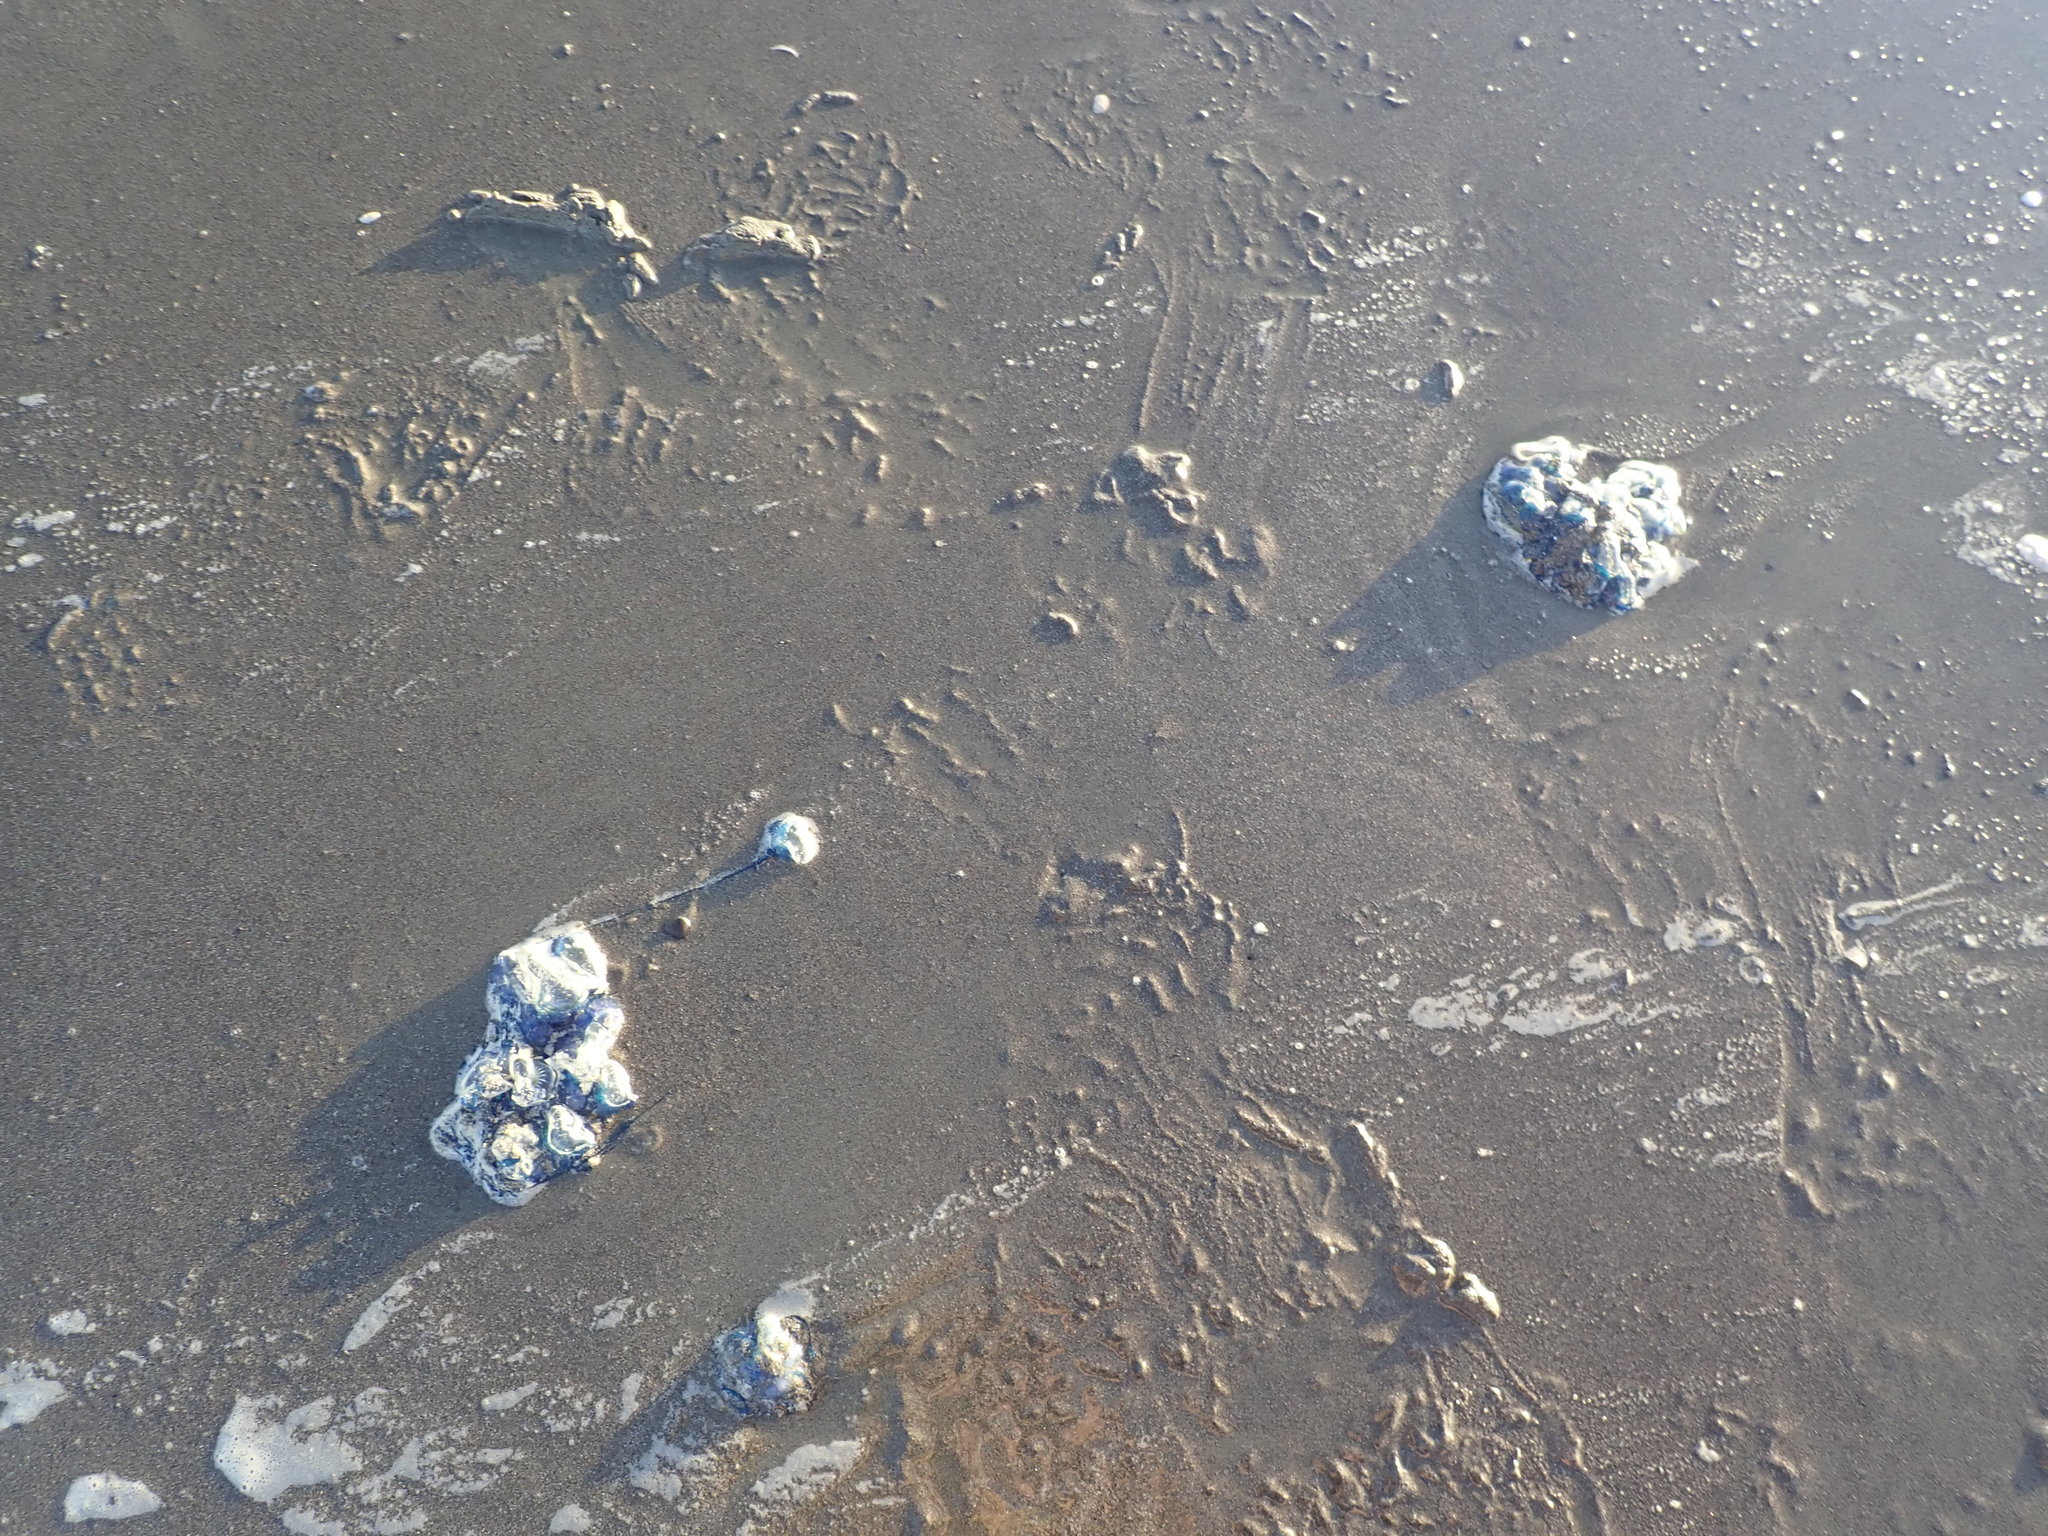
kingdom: Animalia
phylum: Cnidaria
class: Hydrozoa
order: Siphonophorae
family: Physaliidae
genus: Physalia
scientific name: Physalia physalis
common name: Portuguese man-of-war
